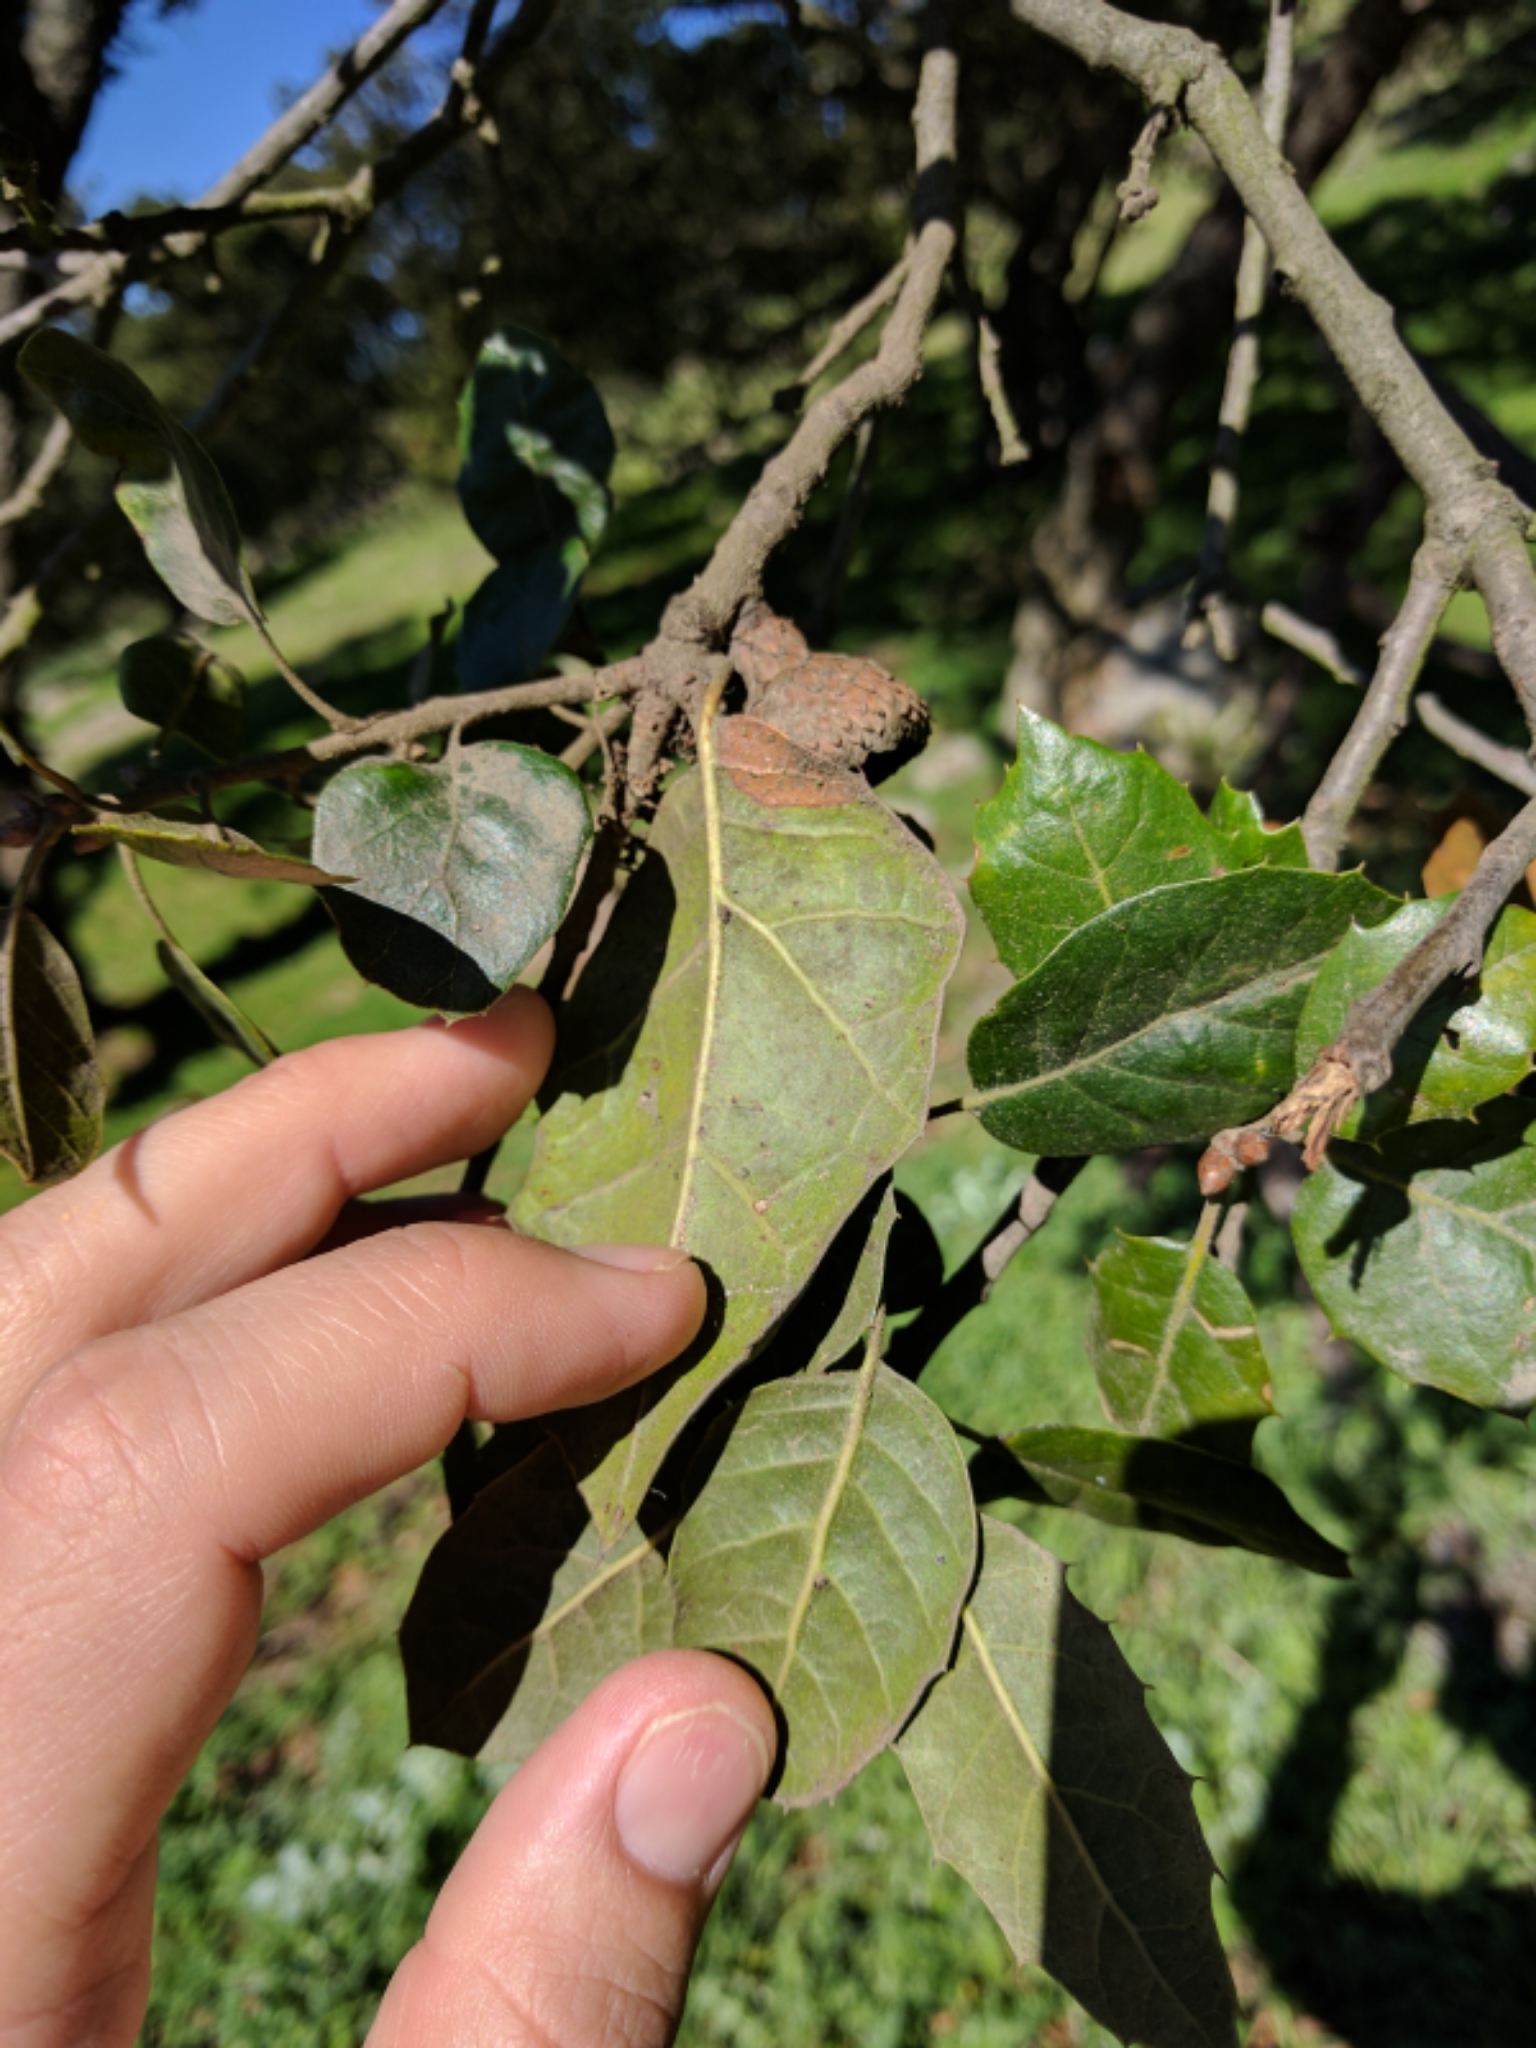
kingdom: Plantae
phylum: Tracheophyta
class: Magnoliopsida
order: Fagales
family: Fagaceae
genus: Quercus
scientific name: Quercus agrifolia
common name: California live oak
